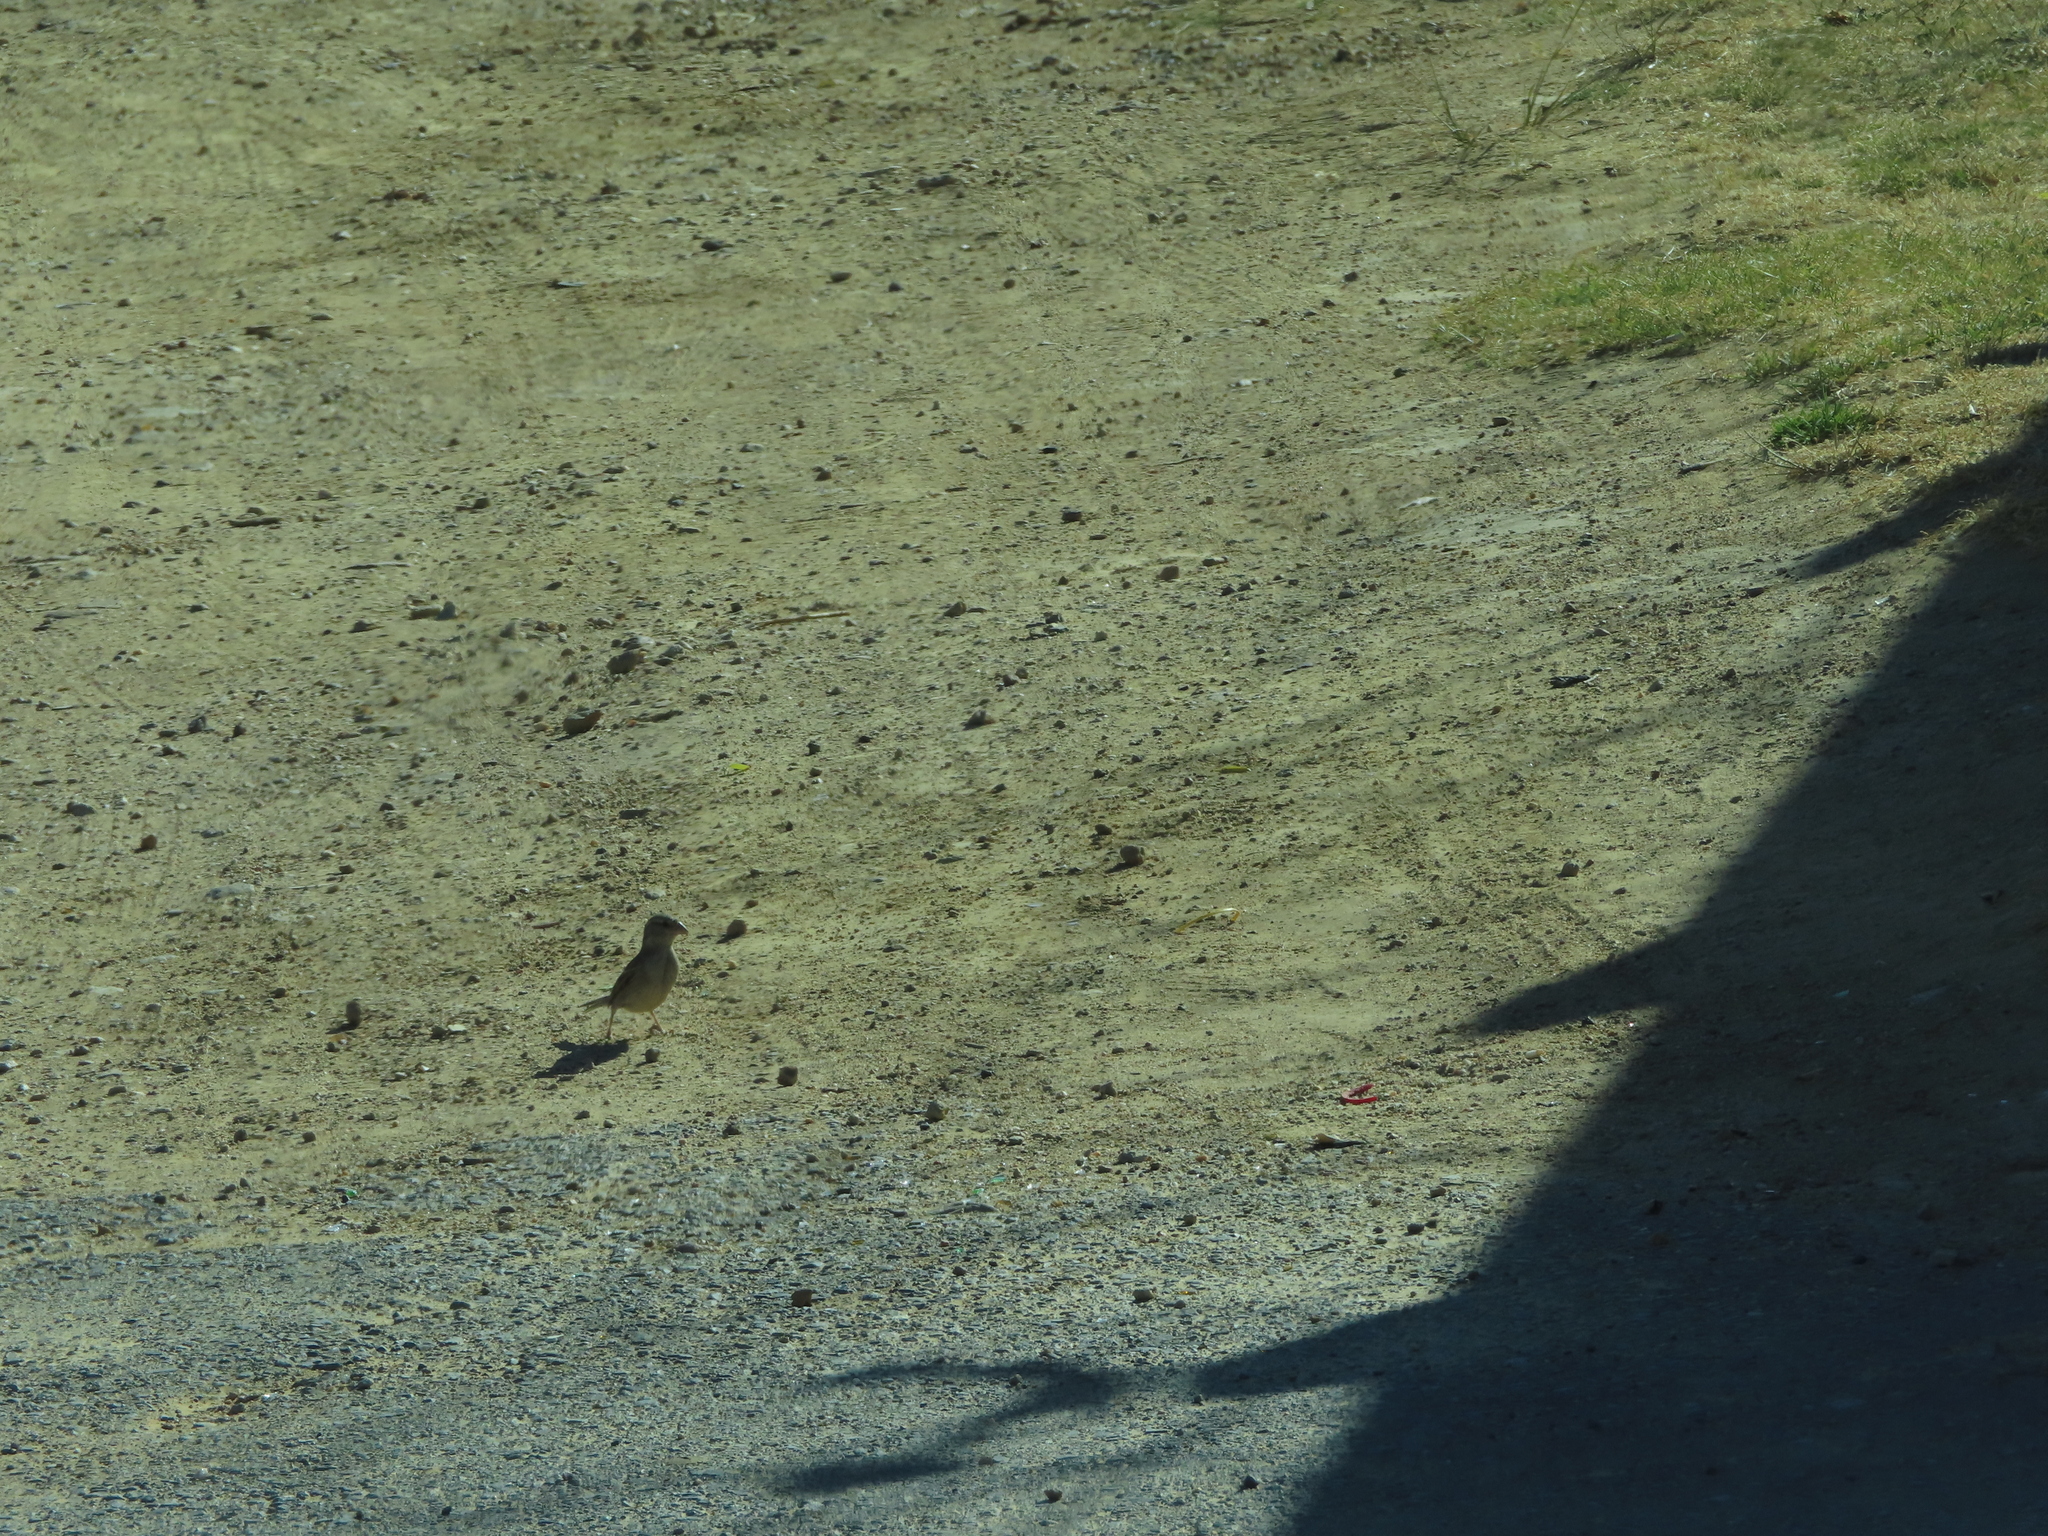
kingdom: Animalia
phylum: Chordata
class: Aves
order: Passeriformes
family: Passeridae
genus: Passer
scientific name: Passer domesticus
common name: House sparrow
